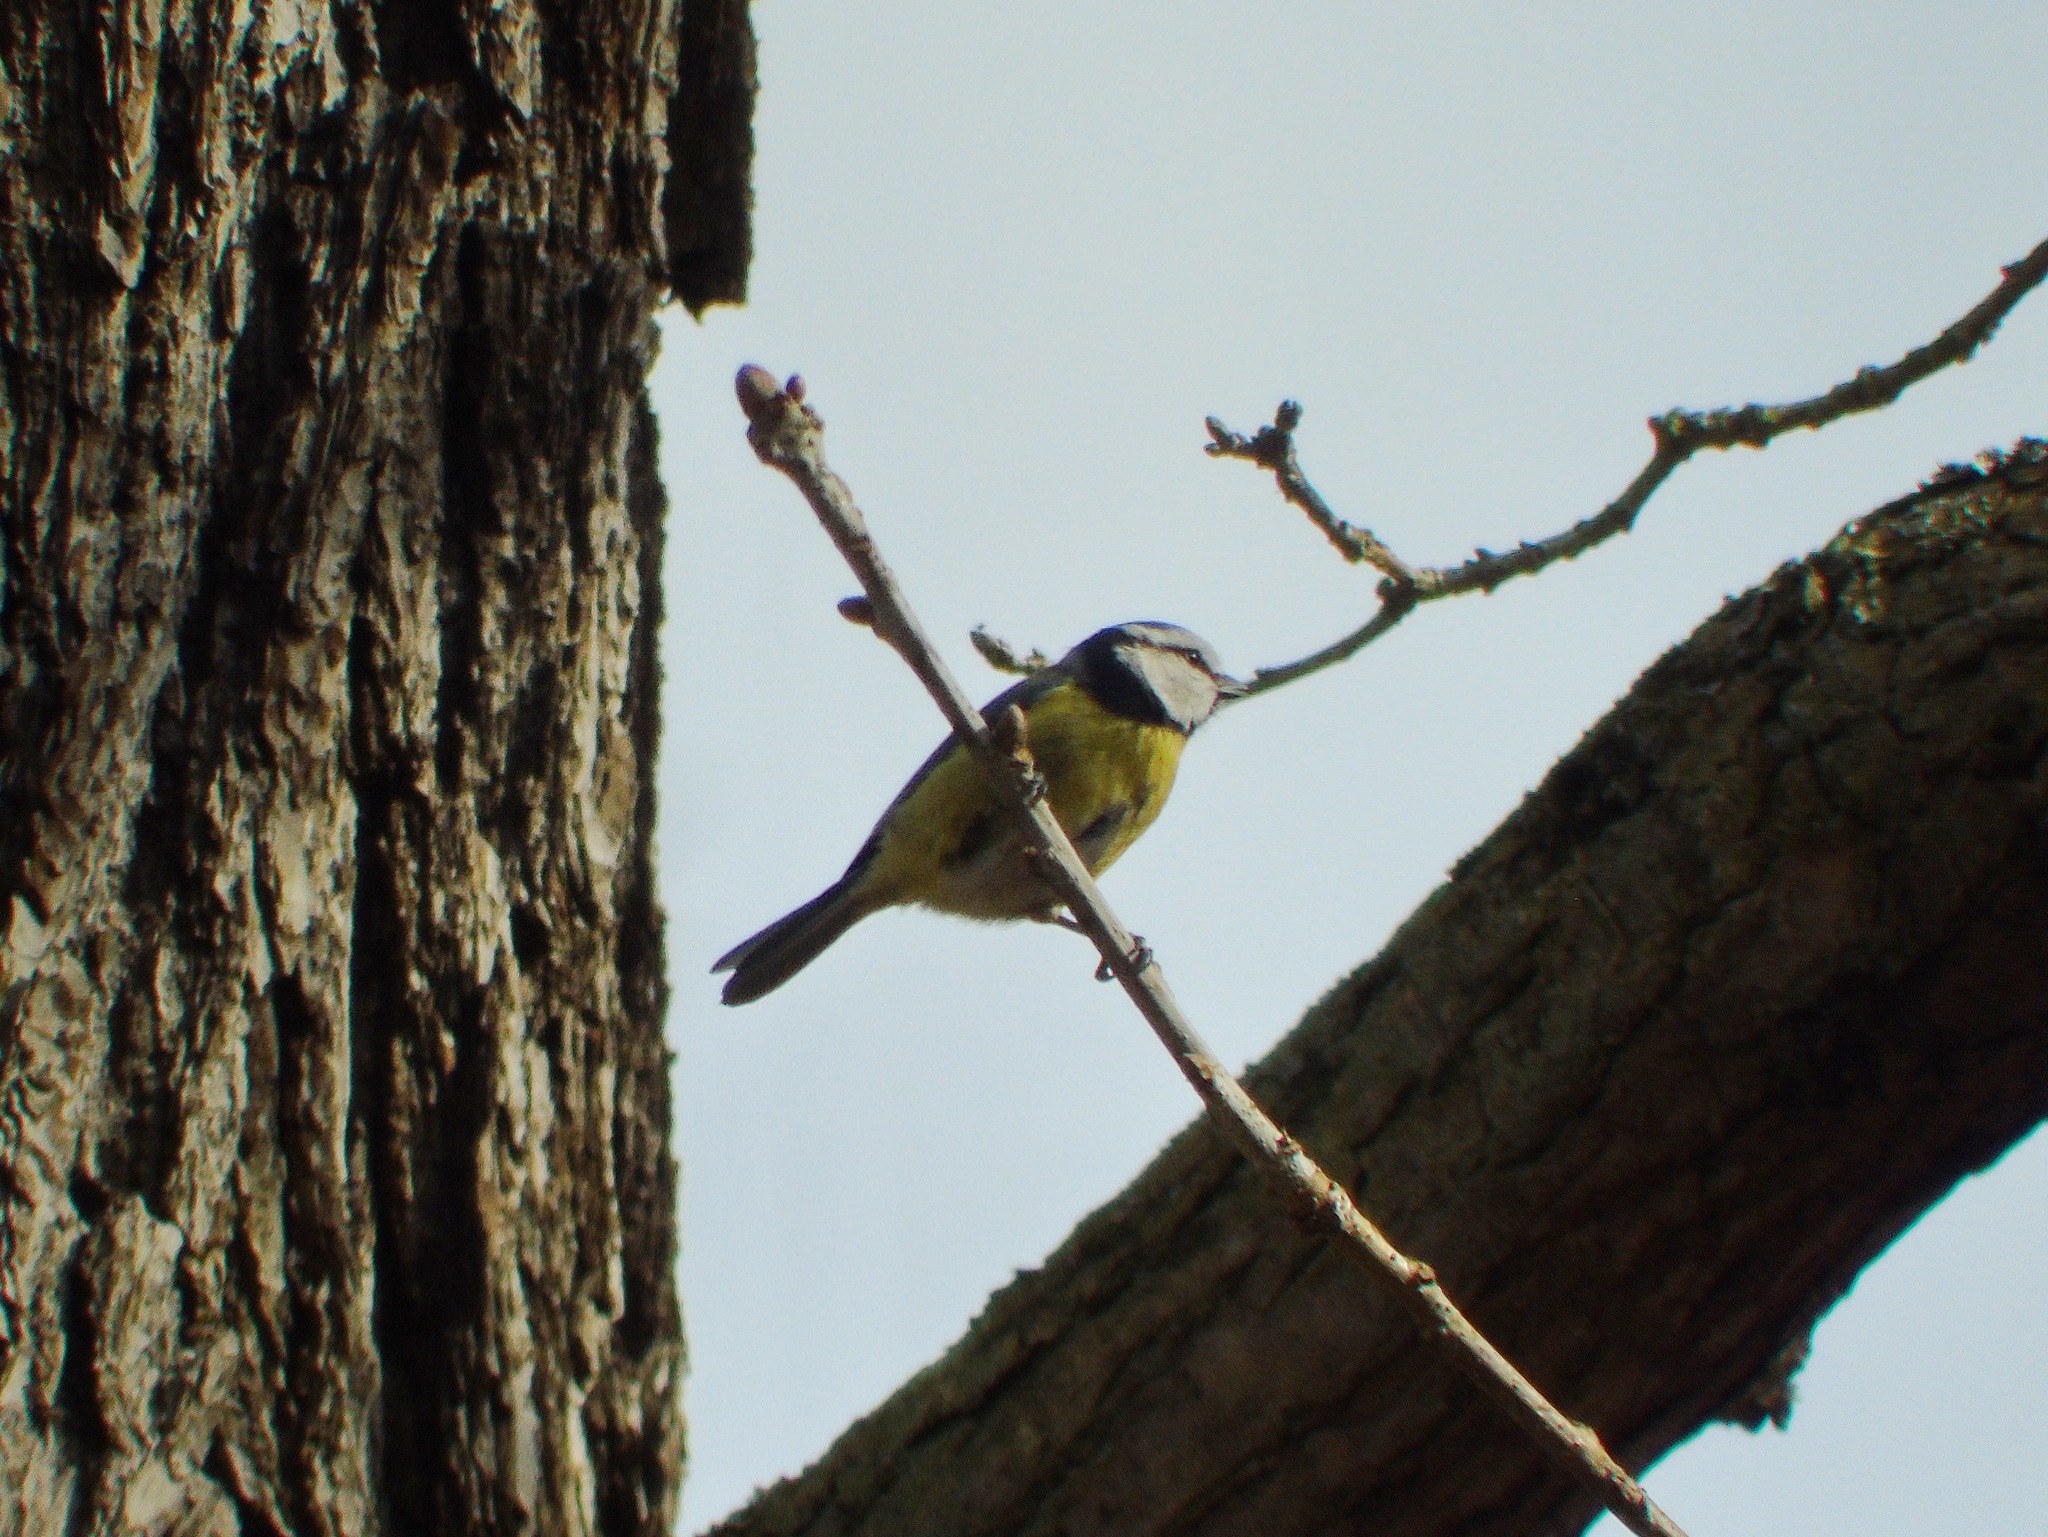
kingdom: Animalia
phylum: Chordata
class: Aves
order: Passeriformes
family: Paridae
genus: Cyanistes
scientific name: Cyanistes caeruleus
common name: Eurasian blue tit
